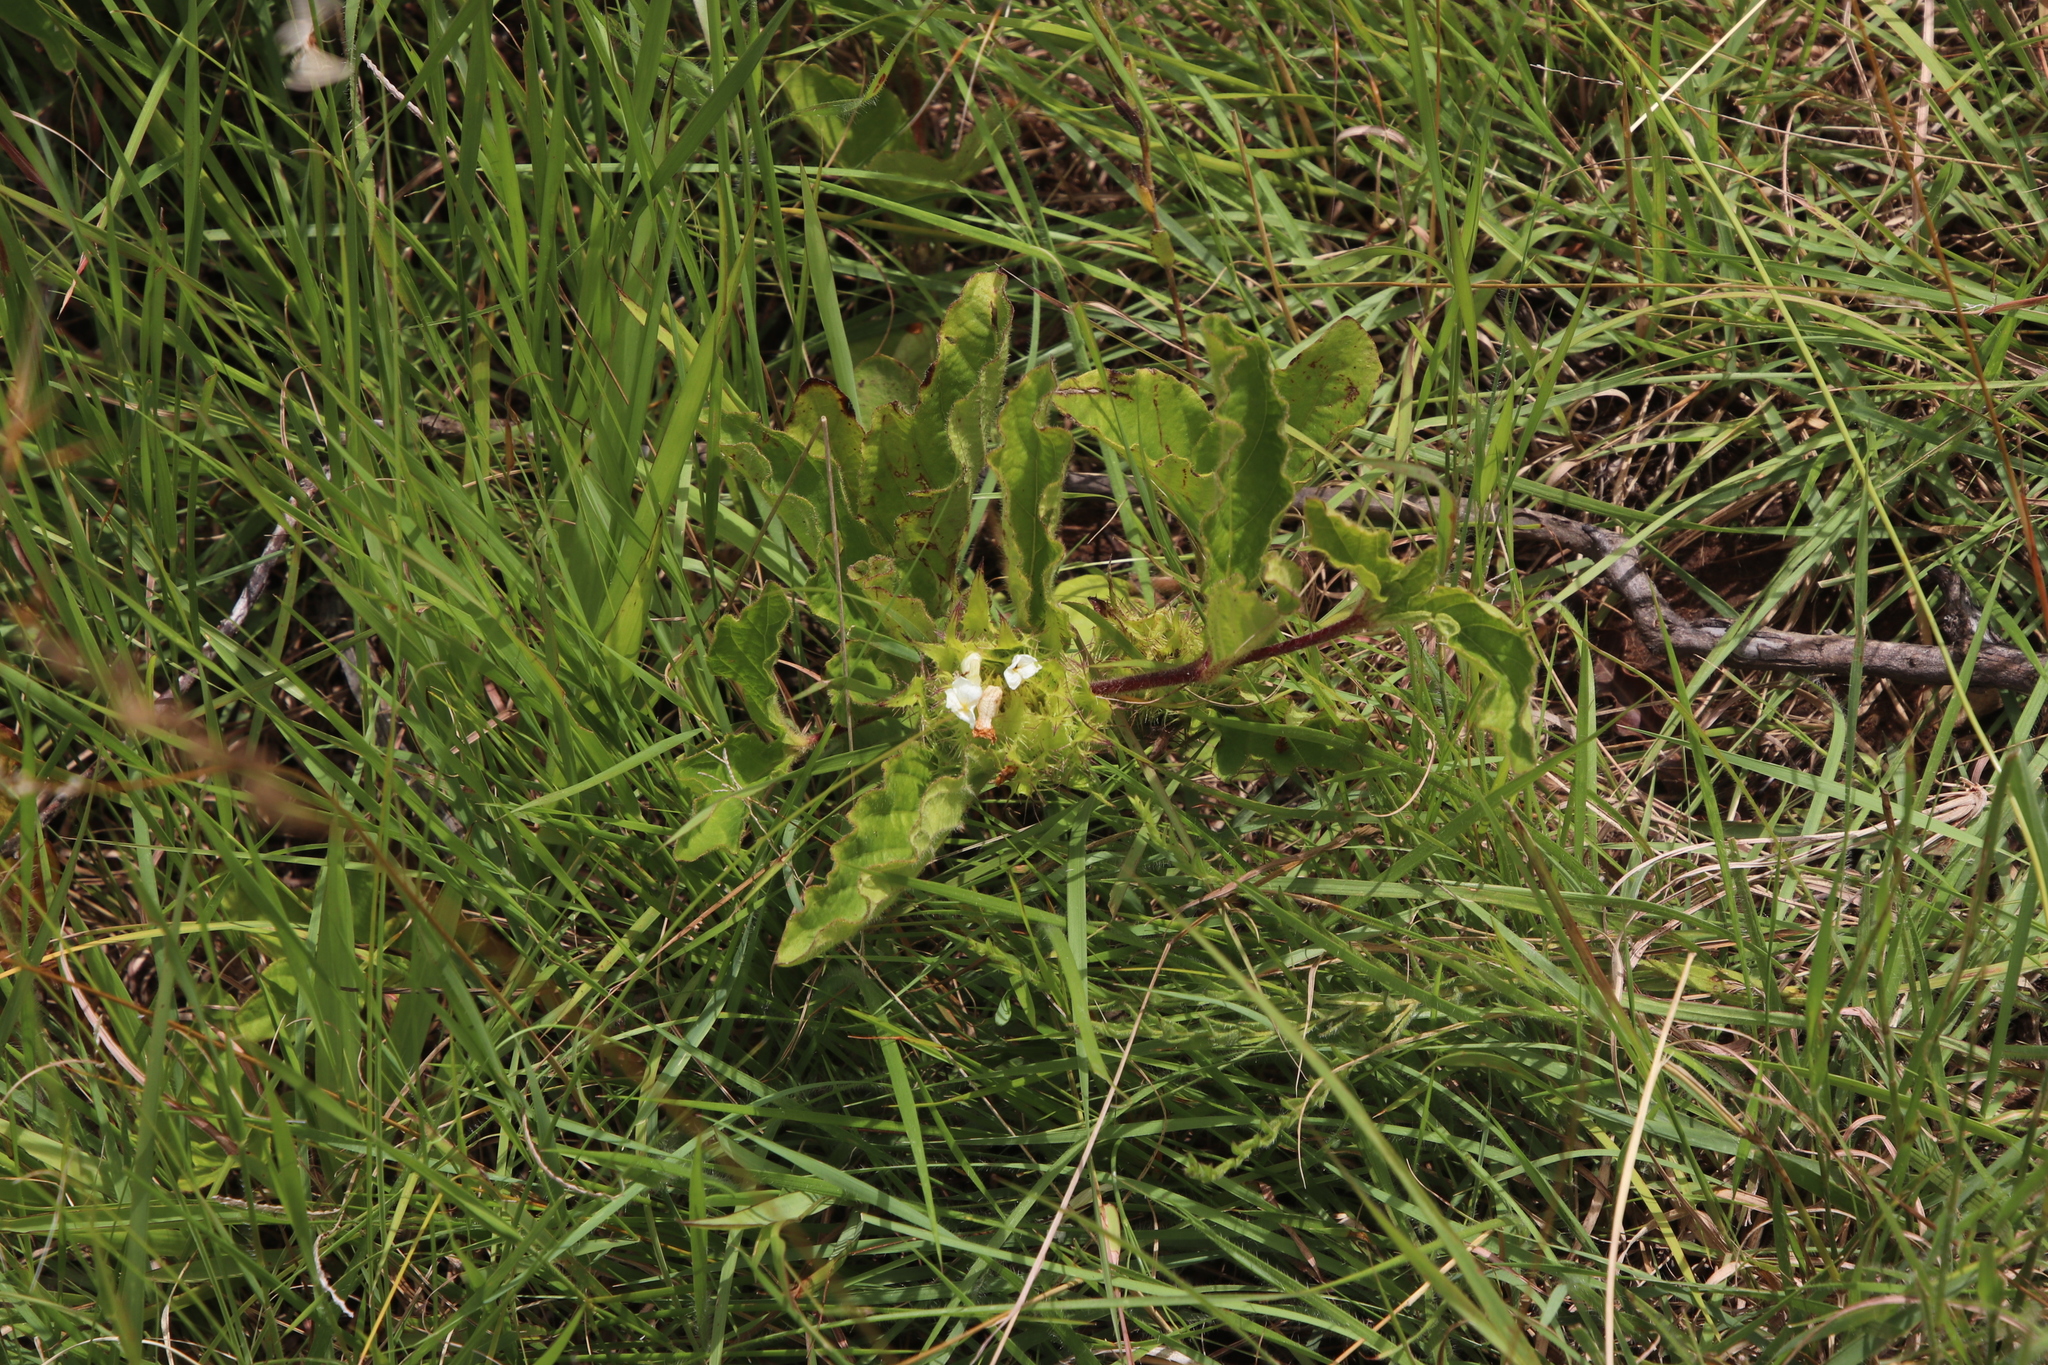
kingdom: Plantae
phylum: Tracheophyta
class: Magnoliopsida
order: Lamiales
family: Acanthaceae
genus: Crabbea
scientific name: Crabbea cirsioides
